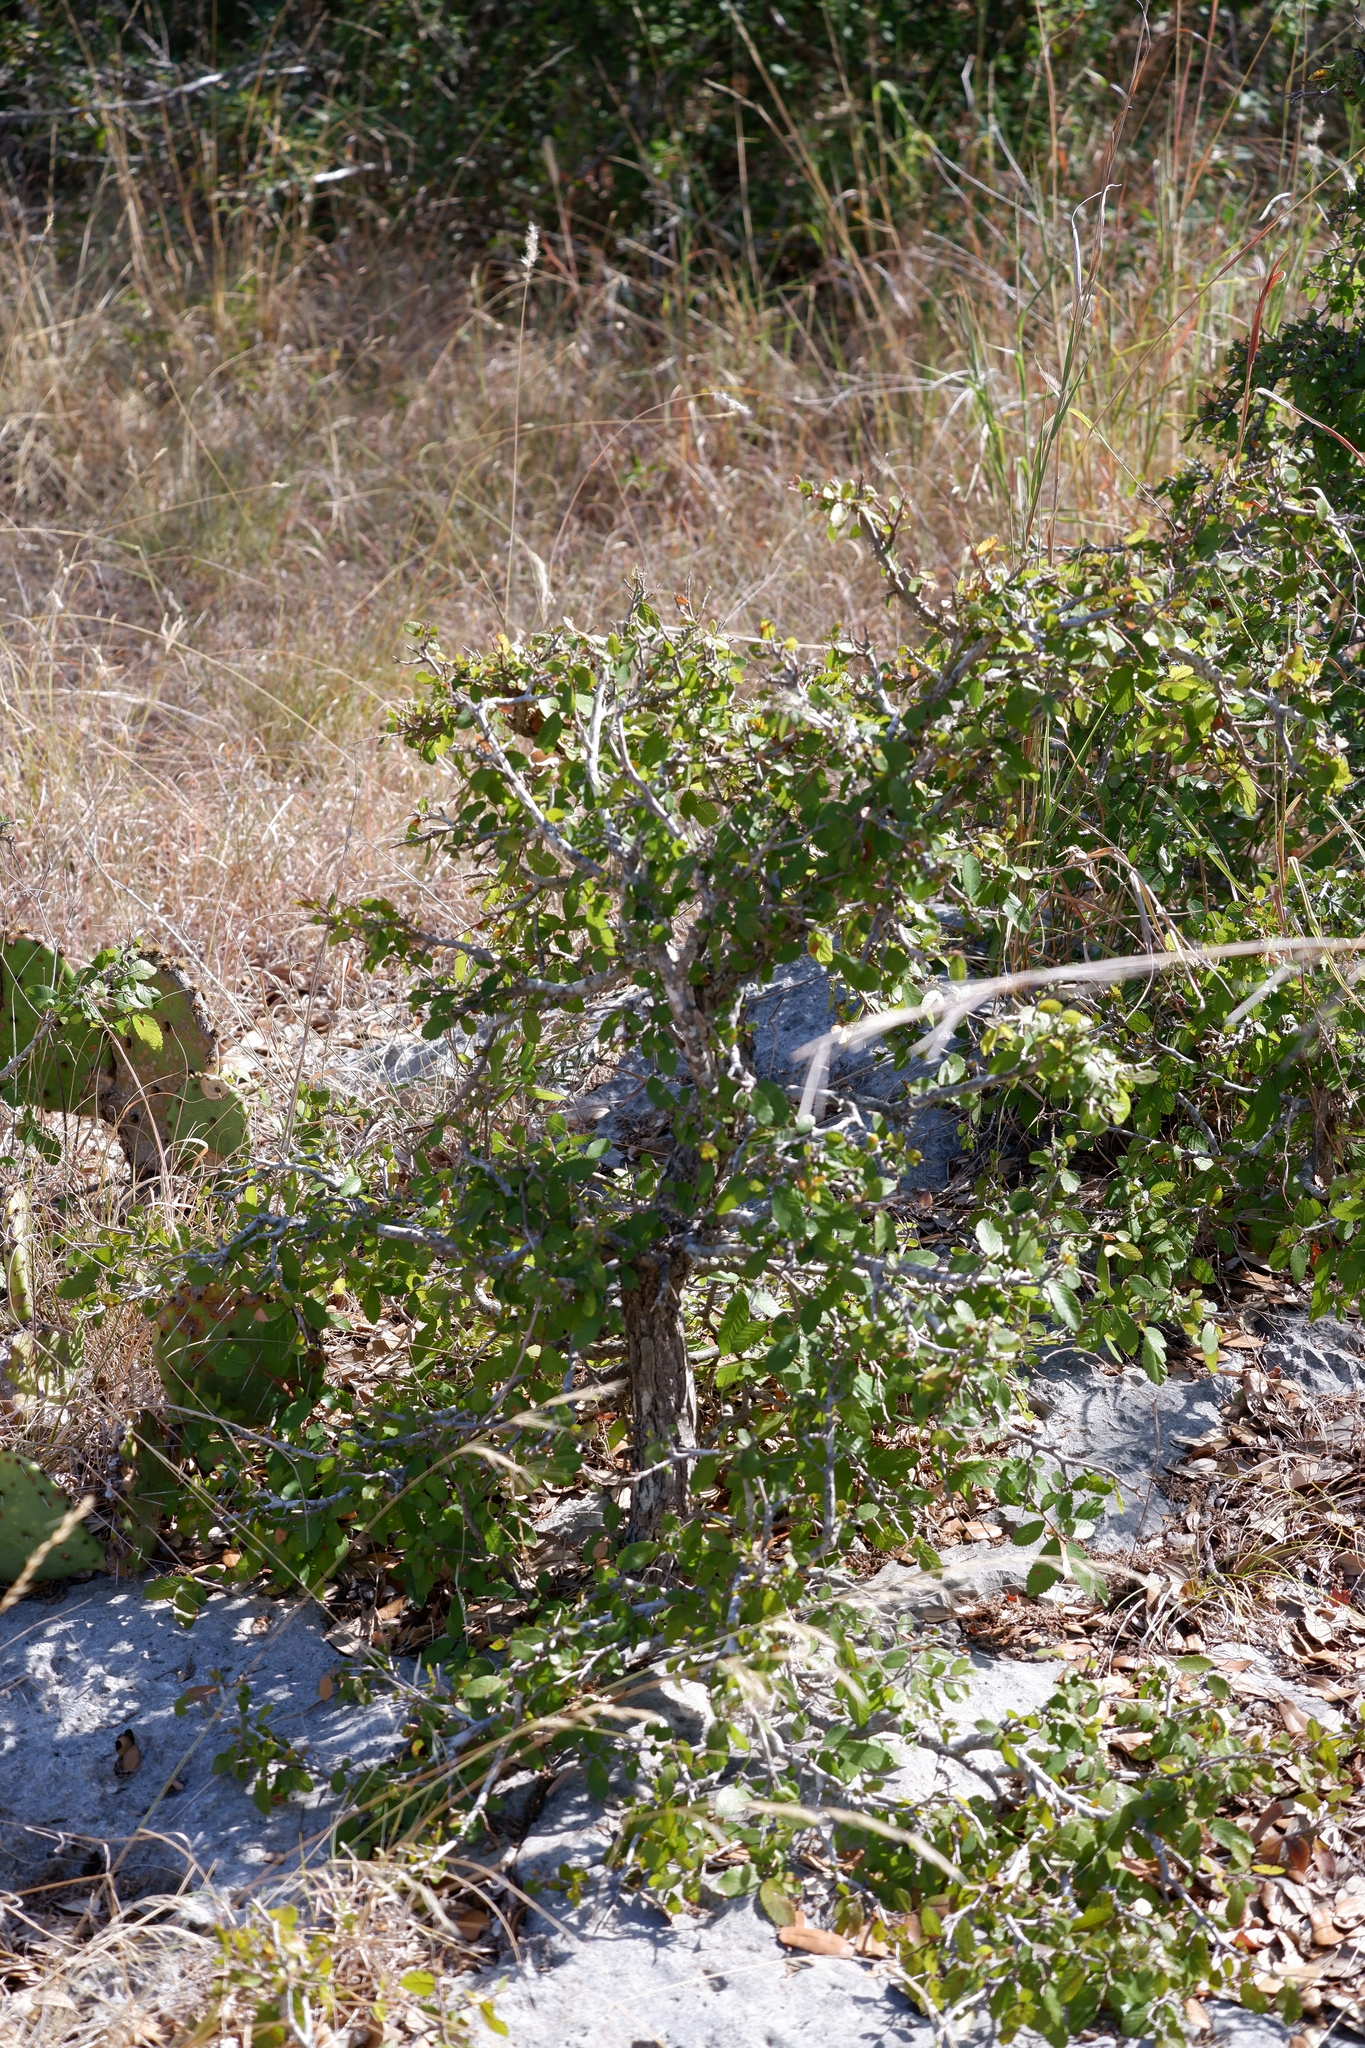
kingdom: Plantae
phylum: Tracheophyta
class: Magnoliopsida
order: Rosales
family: Ulmaceae
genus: Ulmus
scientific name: Ulmus crassifolia
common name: Basket elm
